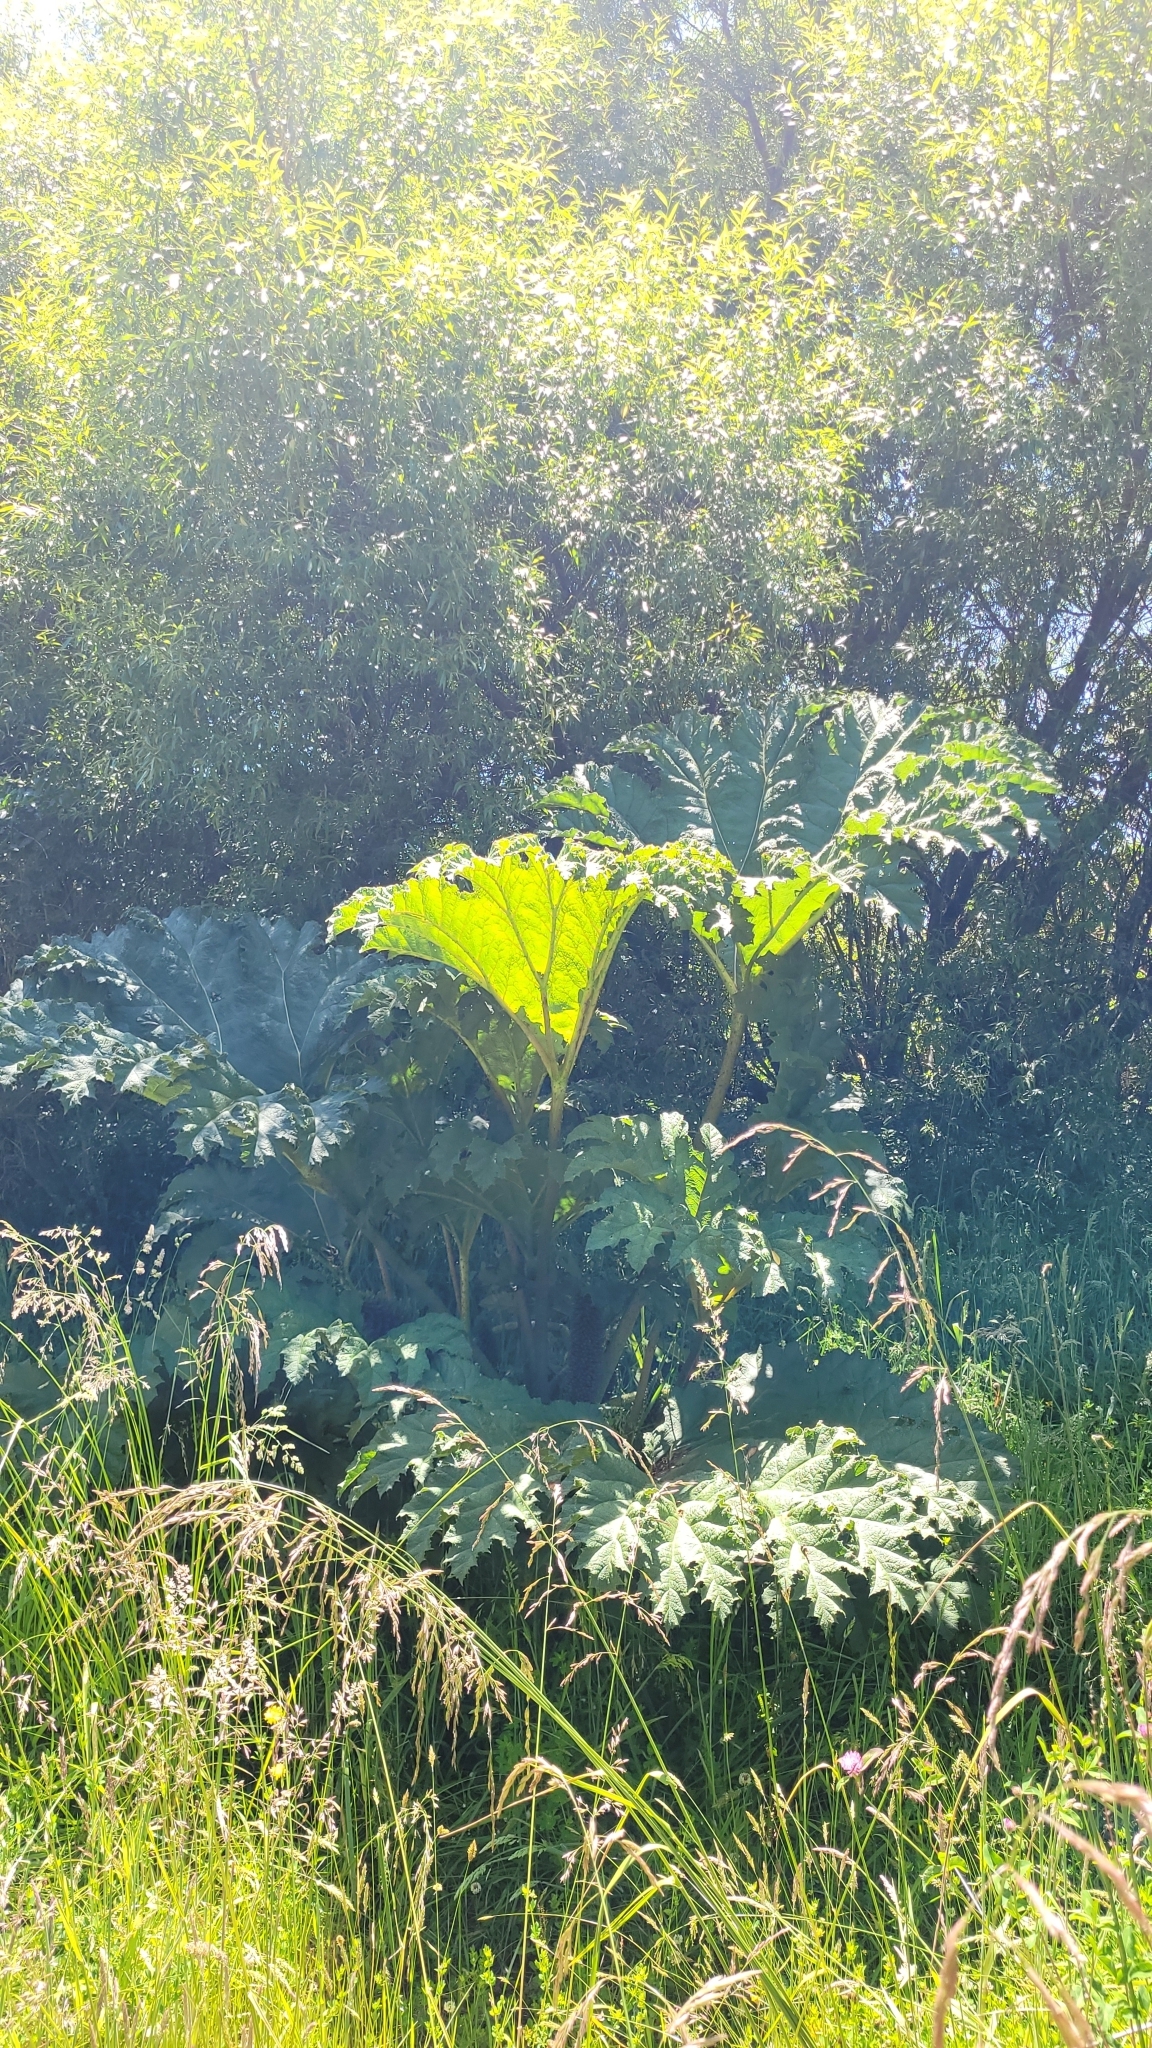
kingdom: Plantae
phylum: Tracheophyta
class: Magnoliopsida
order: Gunnerales
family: Gunneraceae
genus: Gunnera
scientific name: Gunnera tinctoria
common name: Giant-rhubarb
